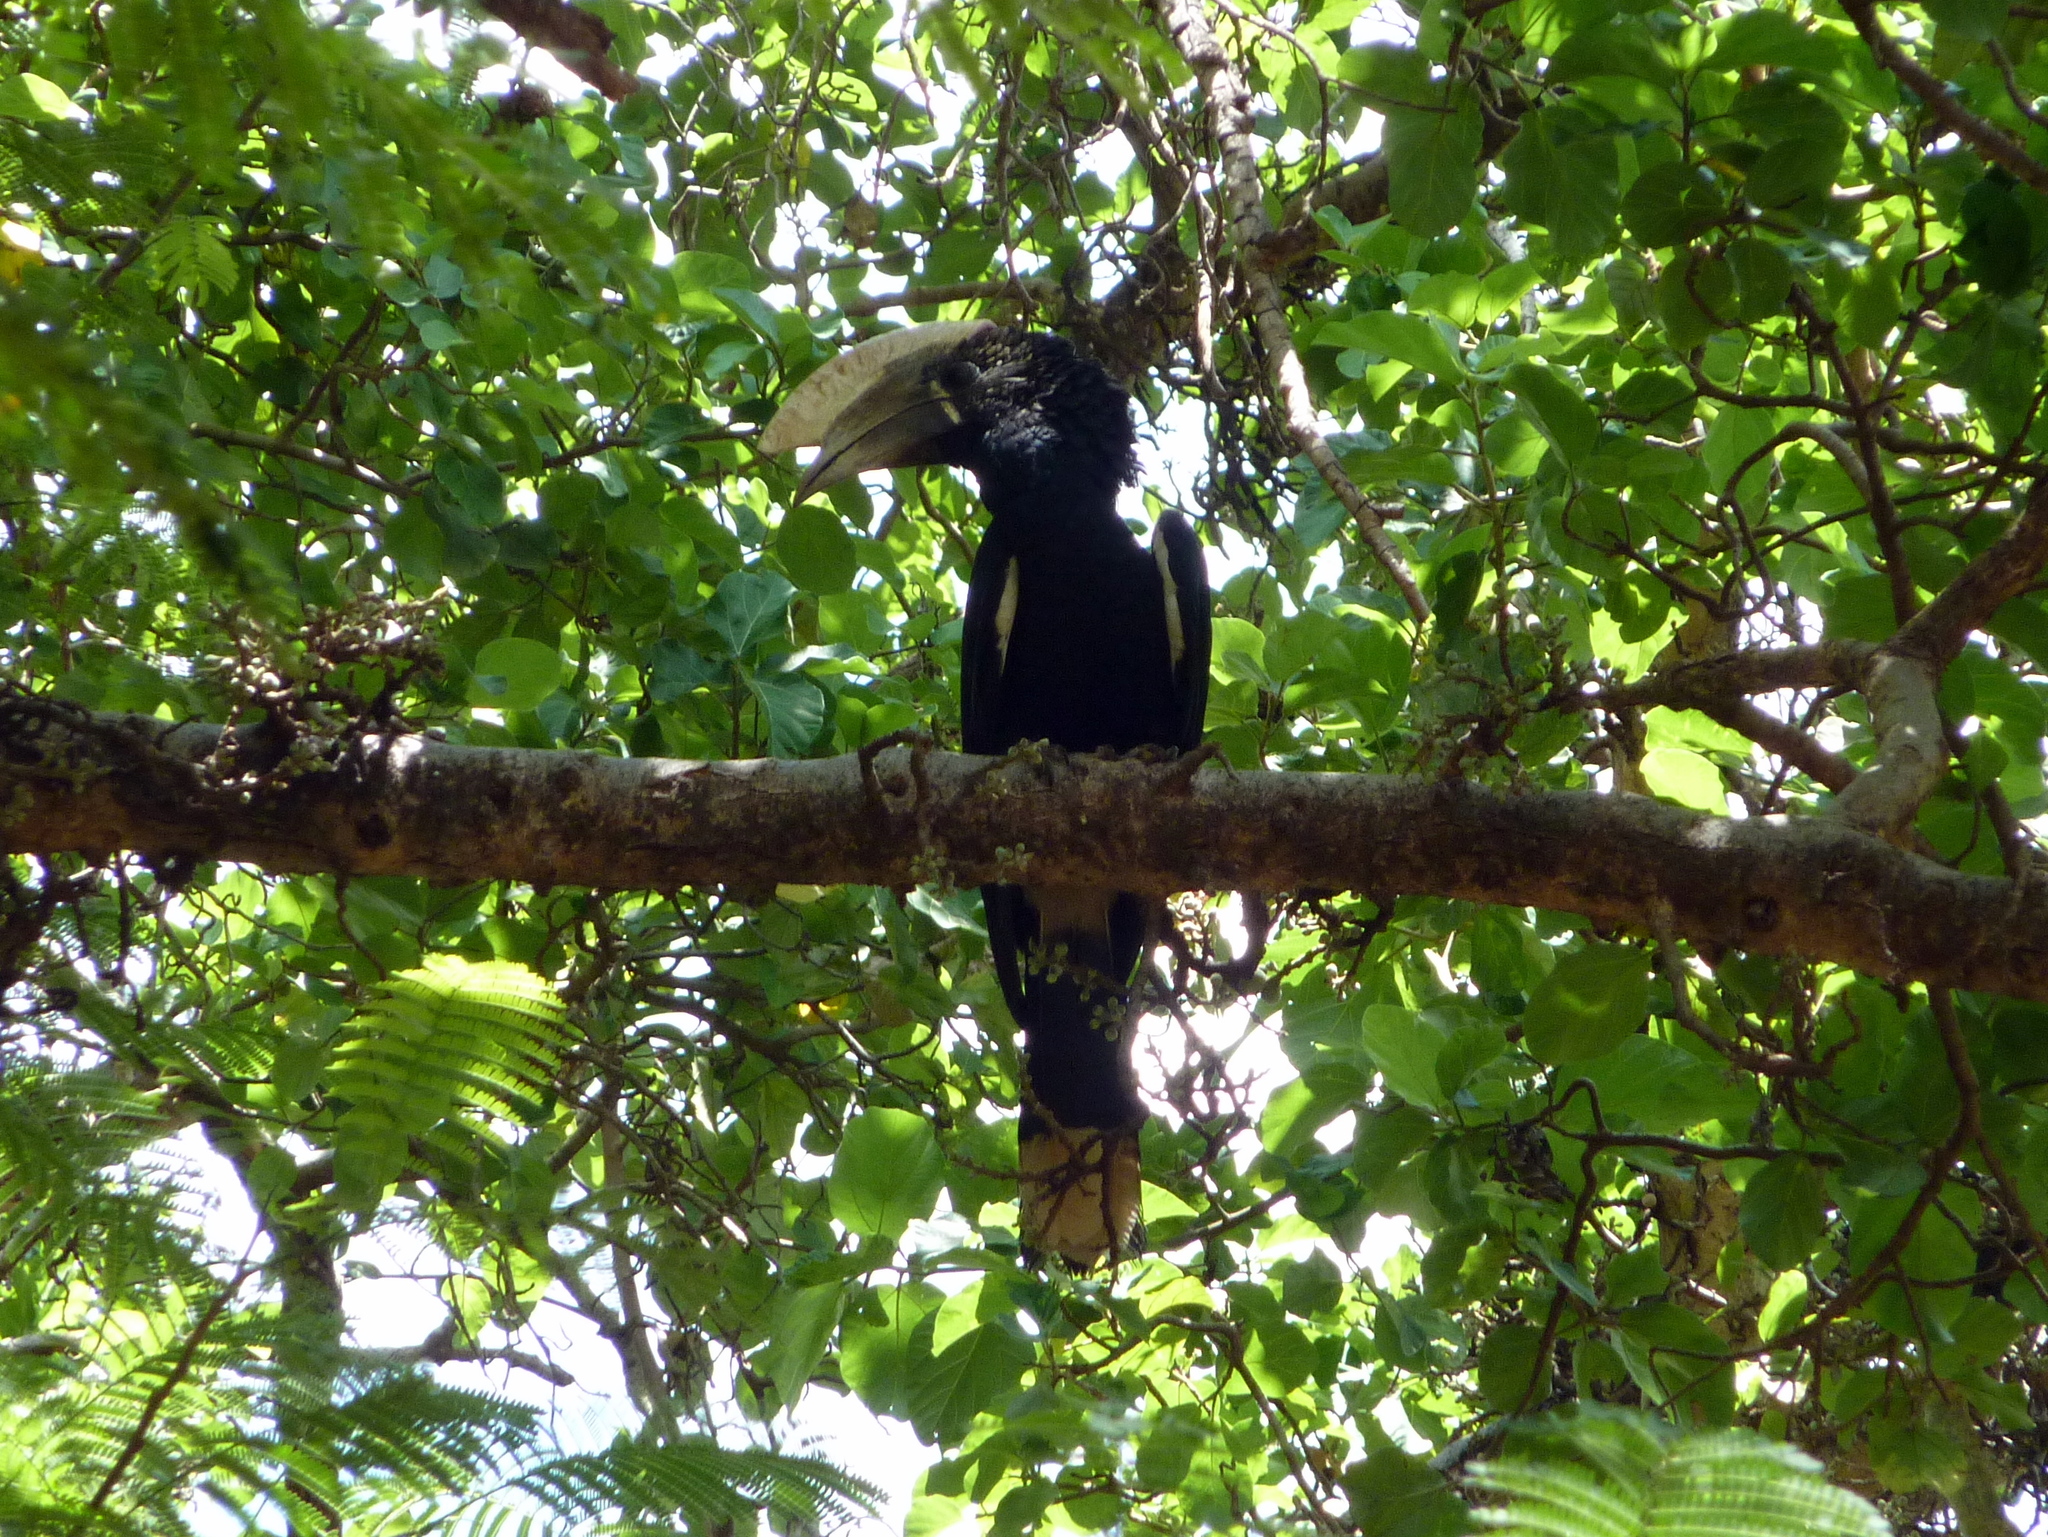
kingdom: Animalia
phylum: Chordata
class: Aves
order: Bucerotiformes
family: Bucerotidae
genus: Bycanistes
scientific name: Bycanistes brevis
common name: Silvery-cheeked hornbill
